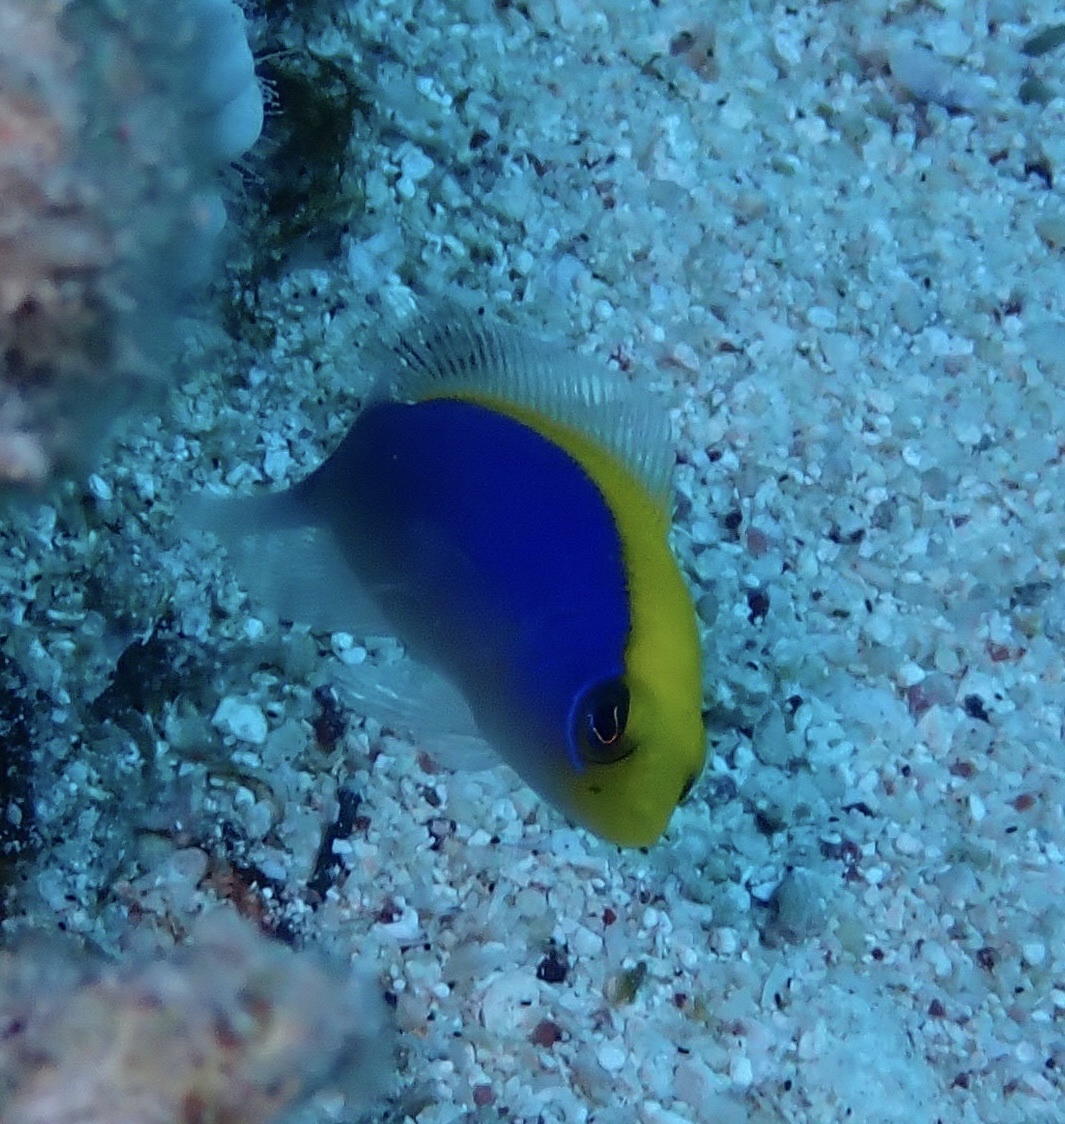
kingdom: Animalia
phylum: Chordata
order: Perciformes
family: Pseudochromidae
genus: Pseudochromis
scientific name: Pseudochromis flavivertex
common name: Sunrise dottyback
